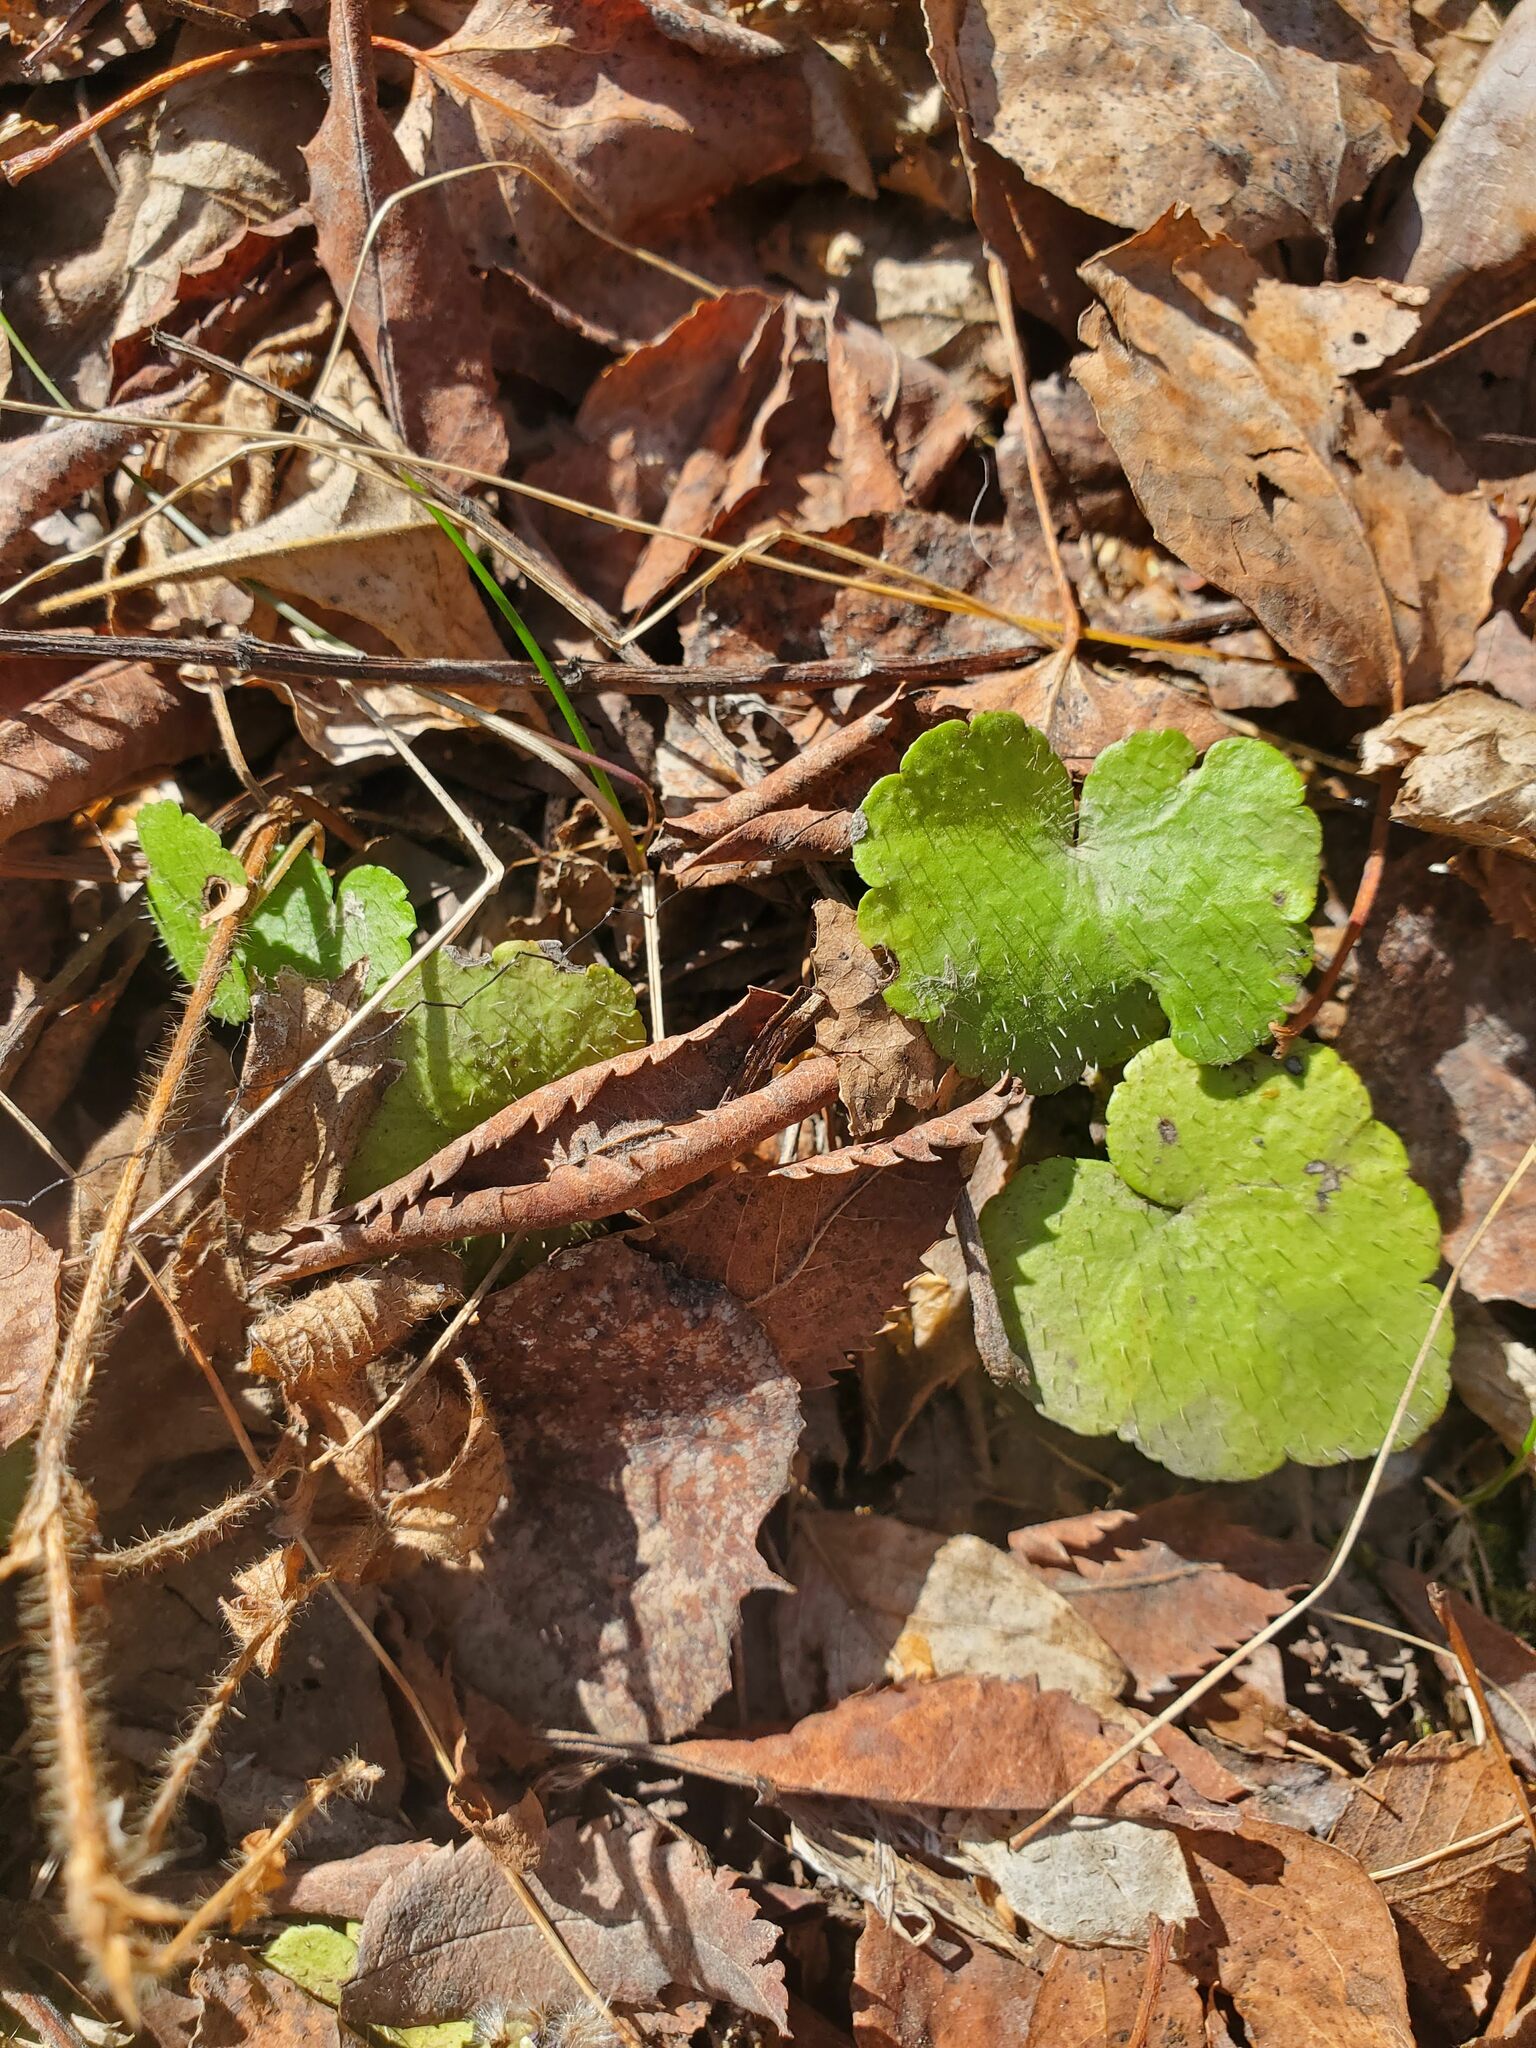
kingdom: Plantae
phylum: Tracheophyta
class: Magnoliopsida
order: Saxifragales
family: Saxifragaceae
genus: Mitella
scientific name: Mitella nuda
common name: Bare-stemmed bishop's-cap
